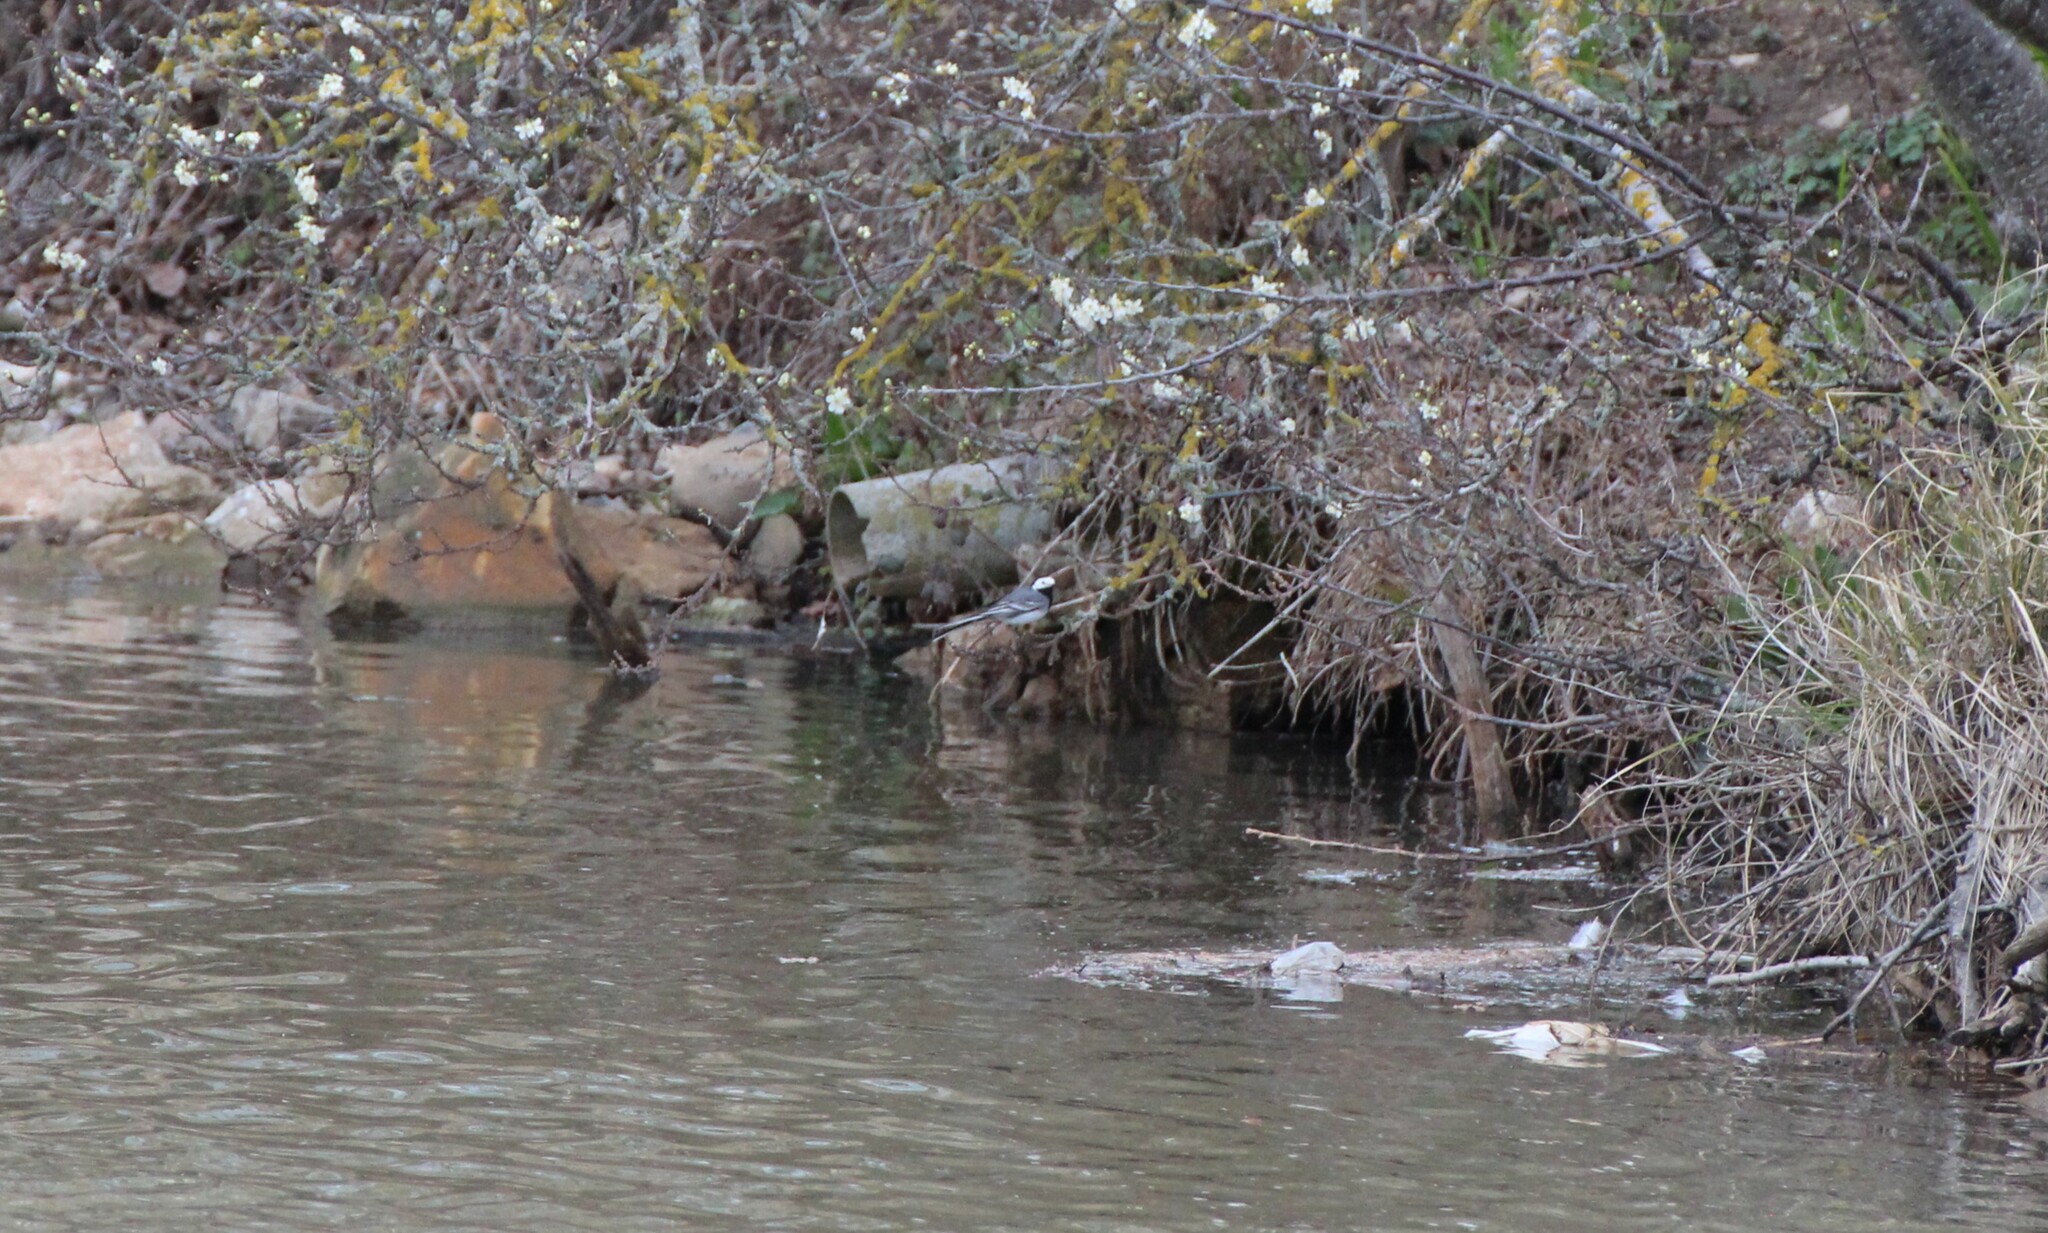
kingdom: Animalia
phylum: Chordata
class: Aves
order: Passeriformes
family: Motacillidae
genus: Motacilla
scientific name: Motacilla alba
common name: White wagtail
